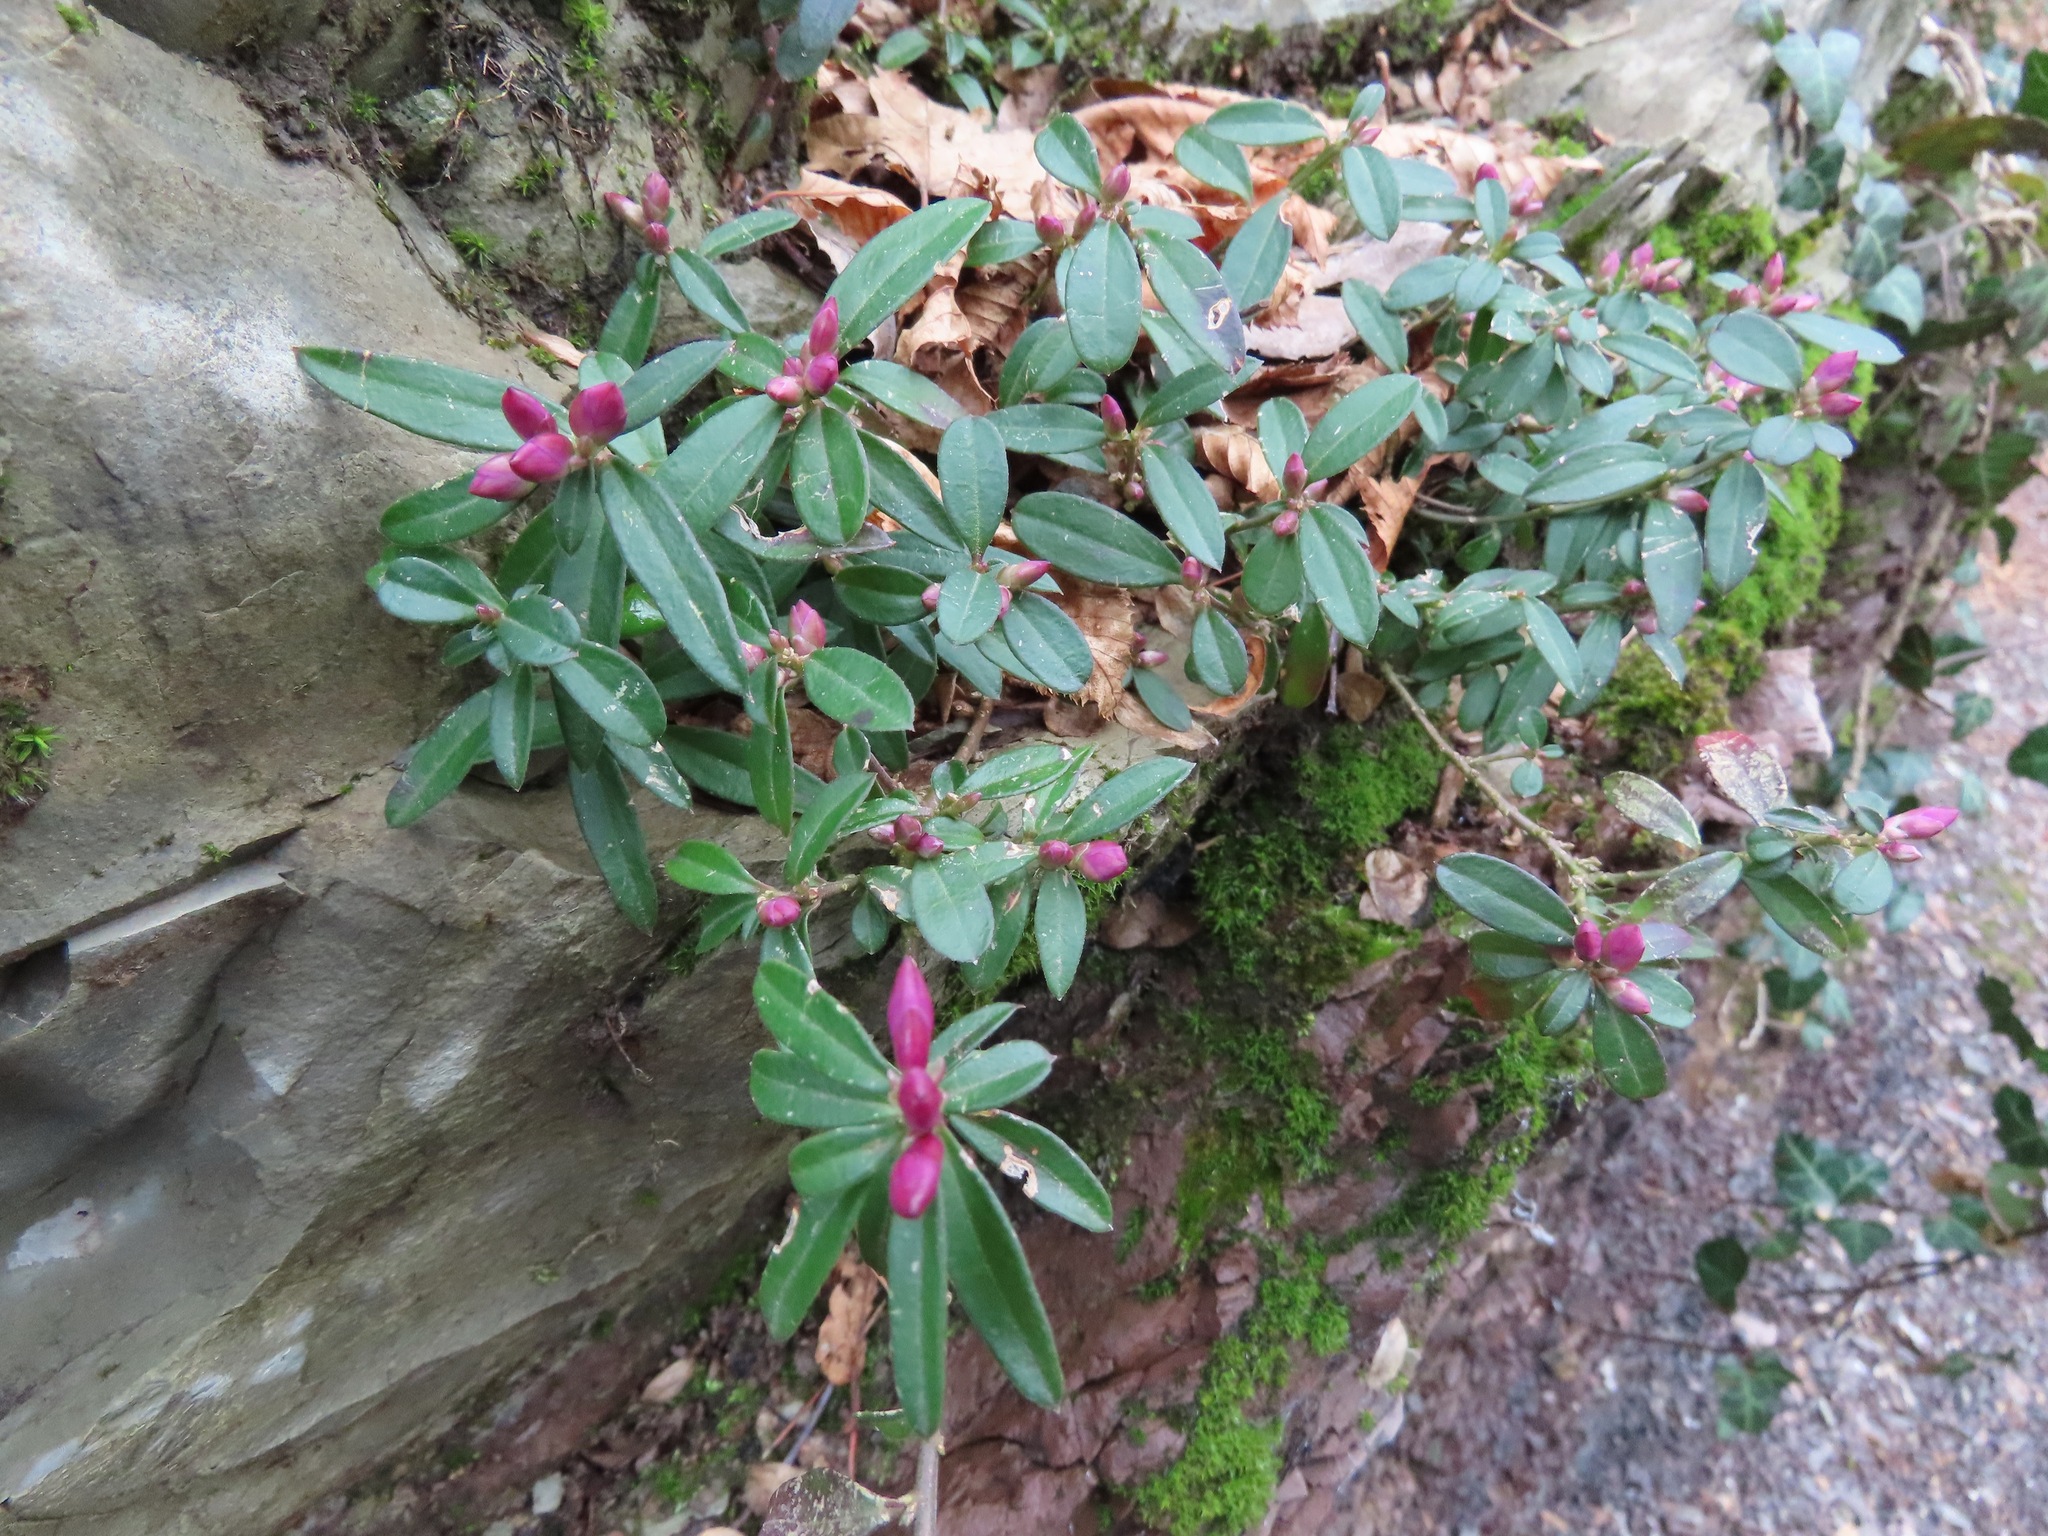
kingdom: Plantae
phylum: Tracheophyta
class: Magnoliopsida
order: Fabales
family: Polygalaceae
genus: Polygaloides
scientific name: Polygaloides chamaebuxus
